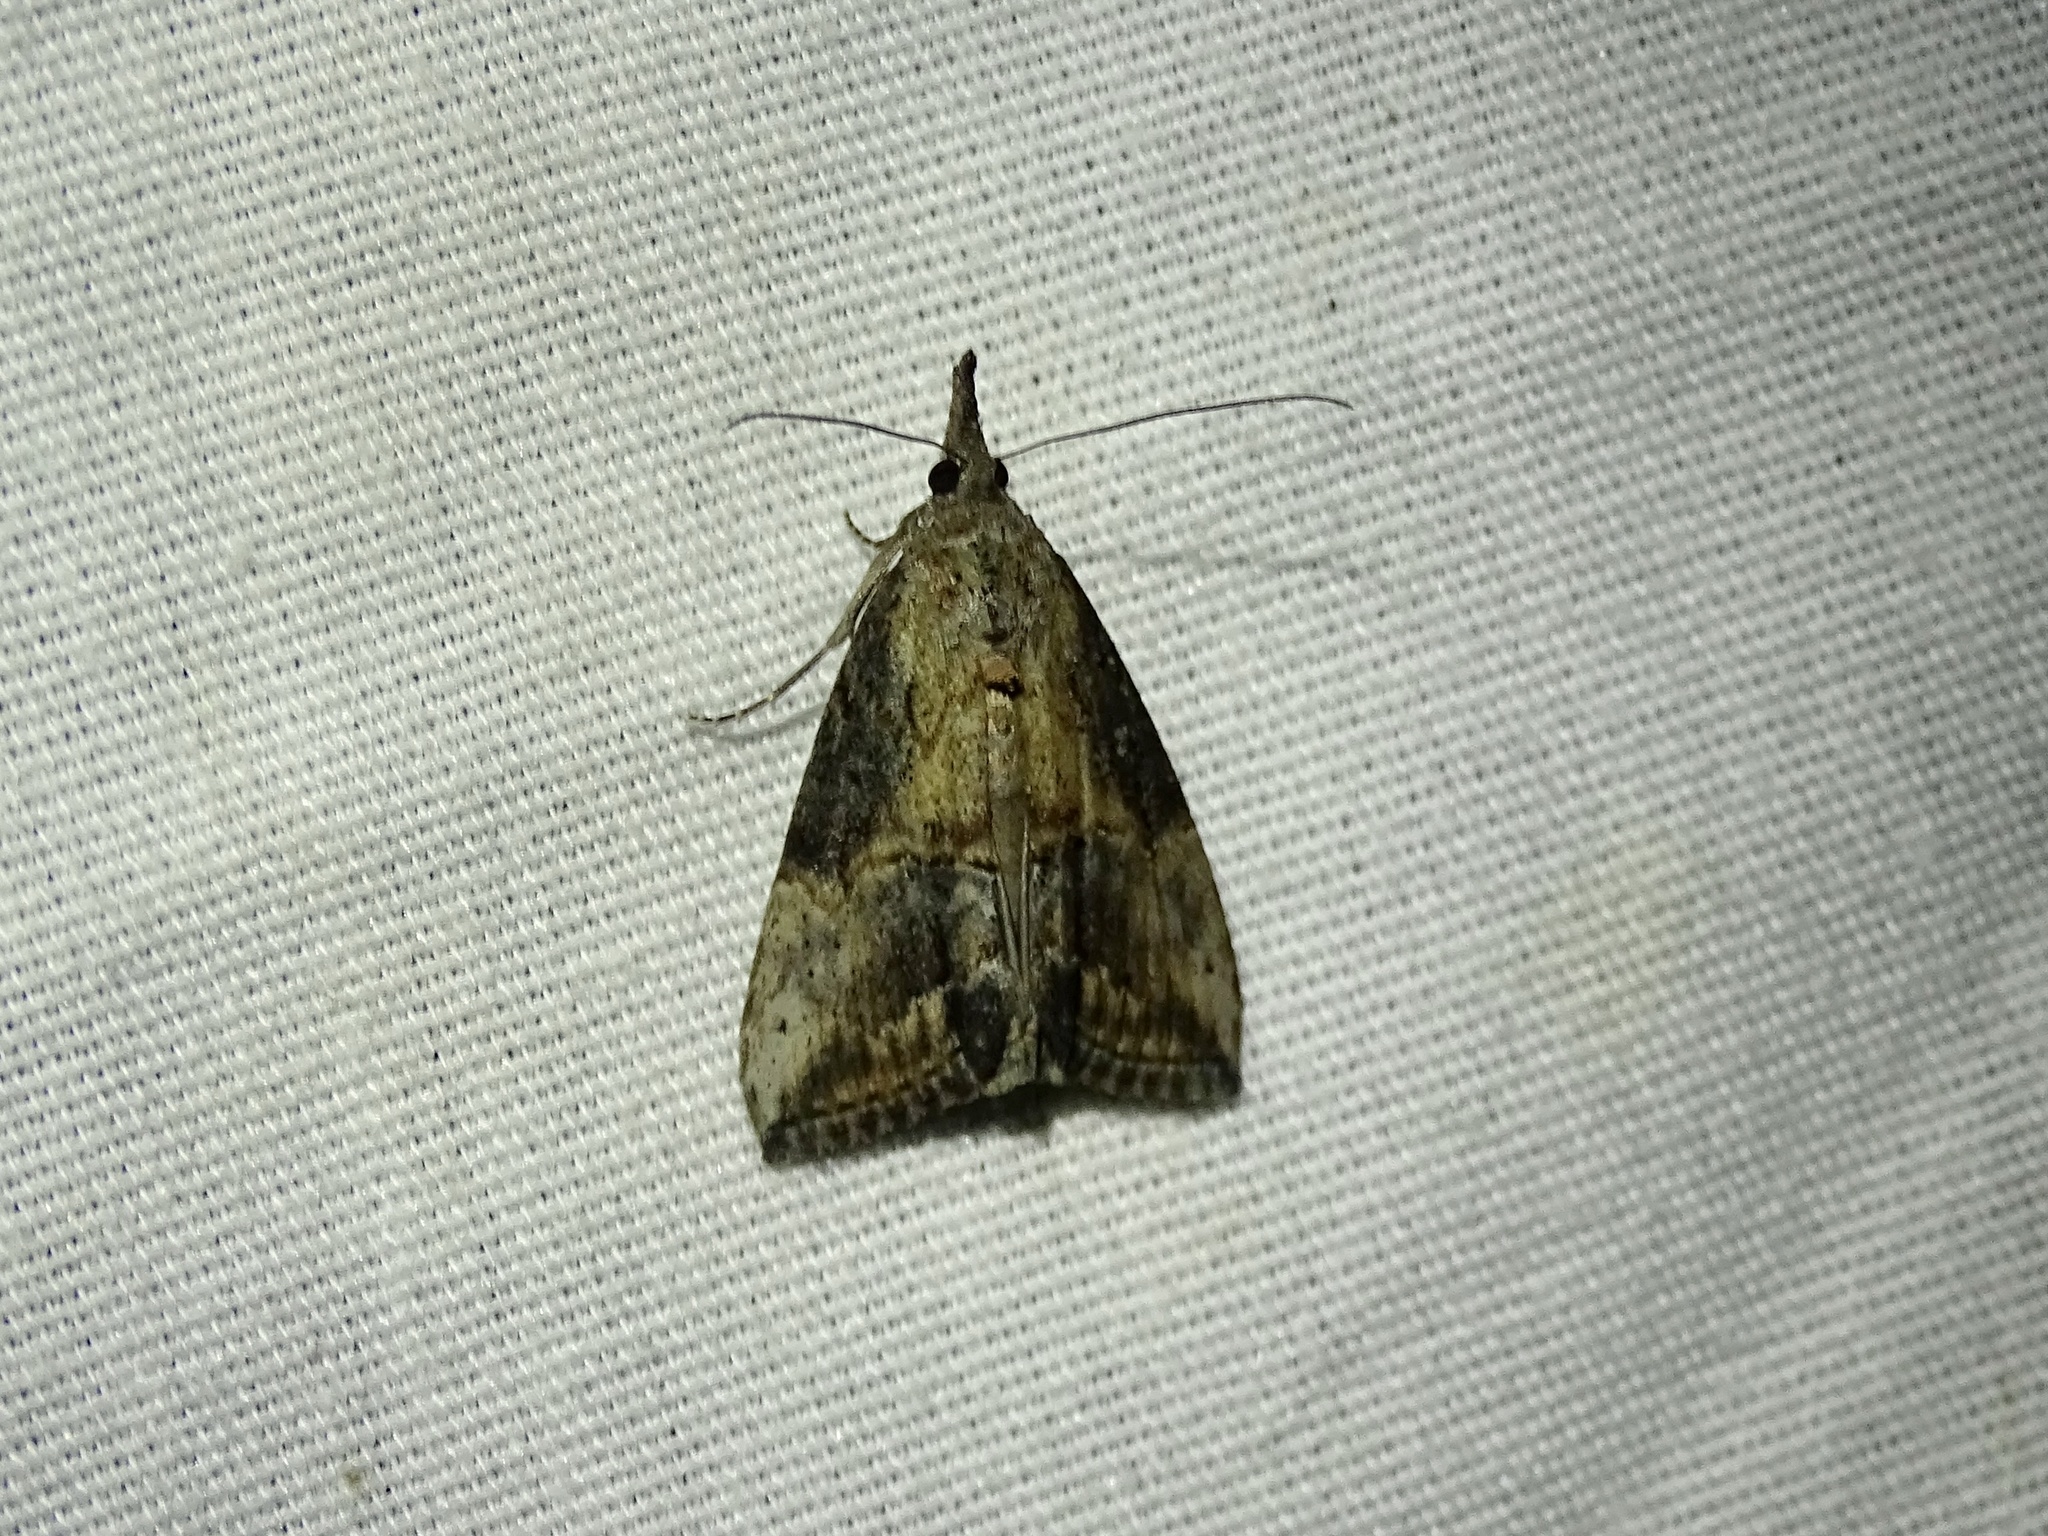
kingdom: Animalia
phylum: Arthropoda
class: Insecta
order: Lepidoptera
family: Erebidae
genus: Hypena
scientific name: Hypena scabra
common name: Green cloverworm
